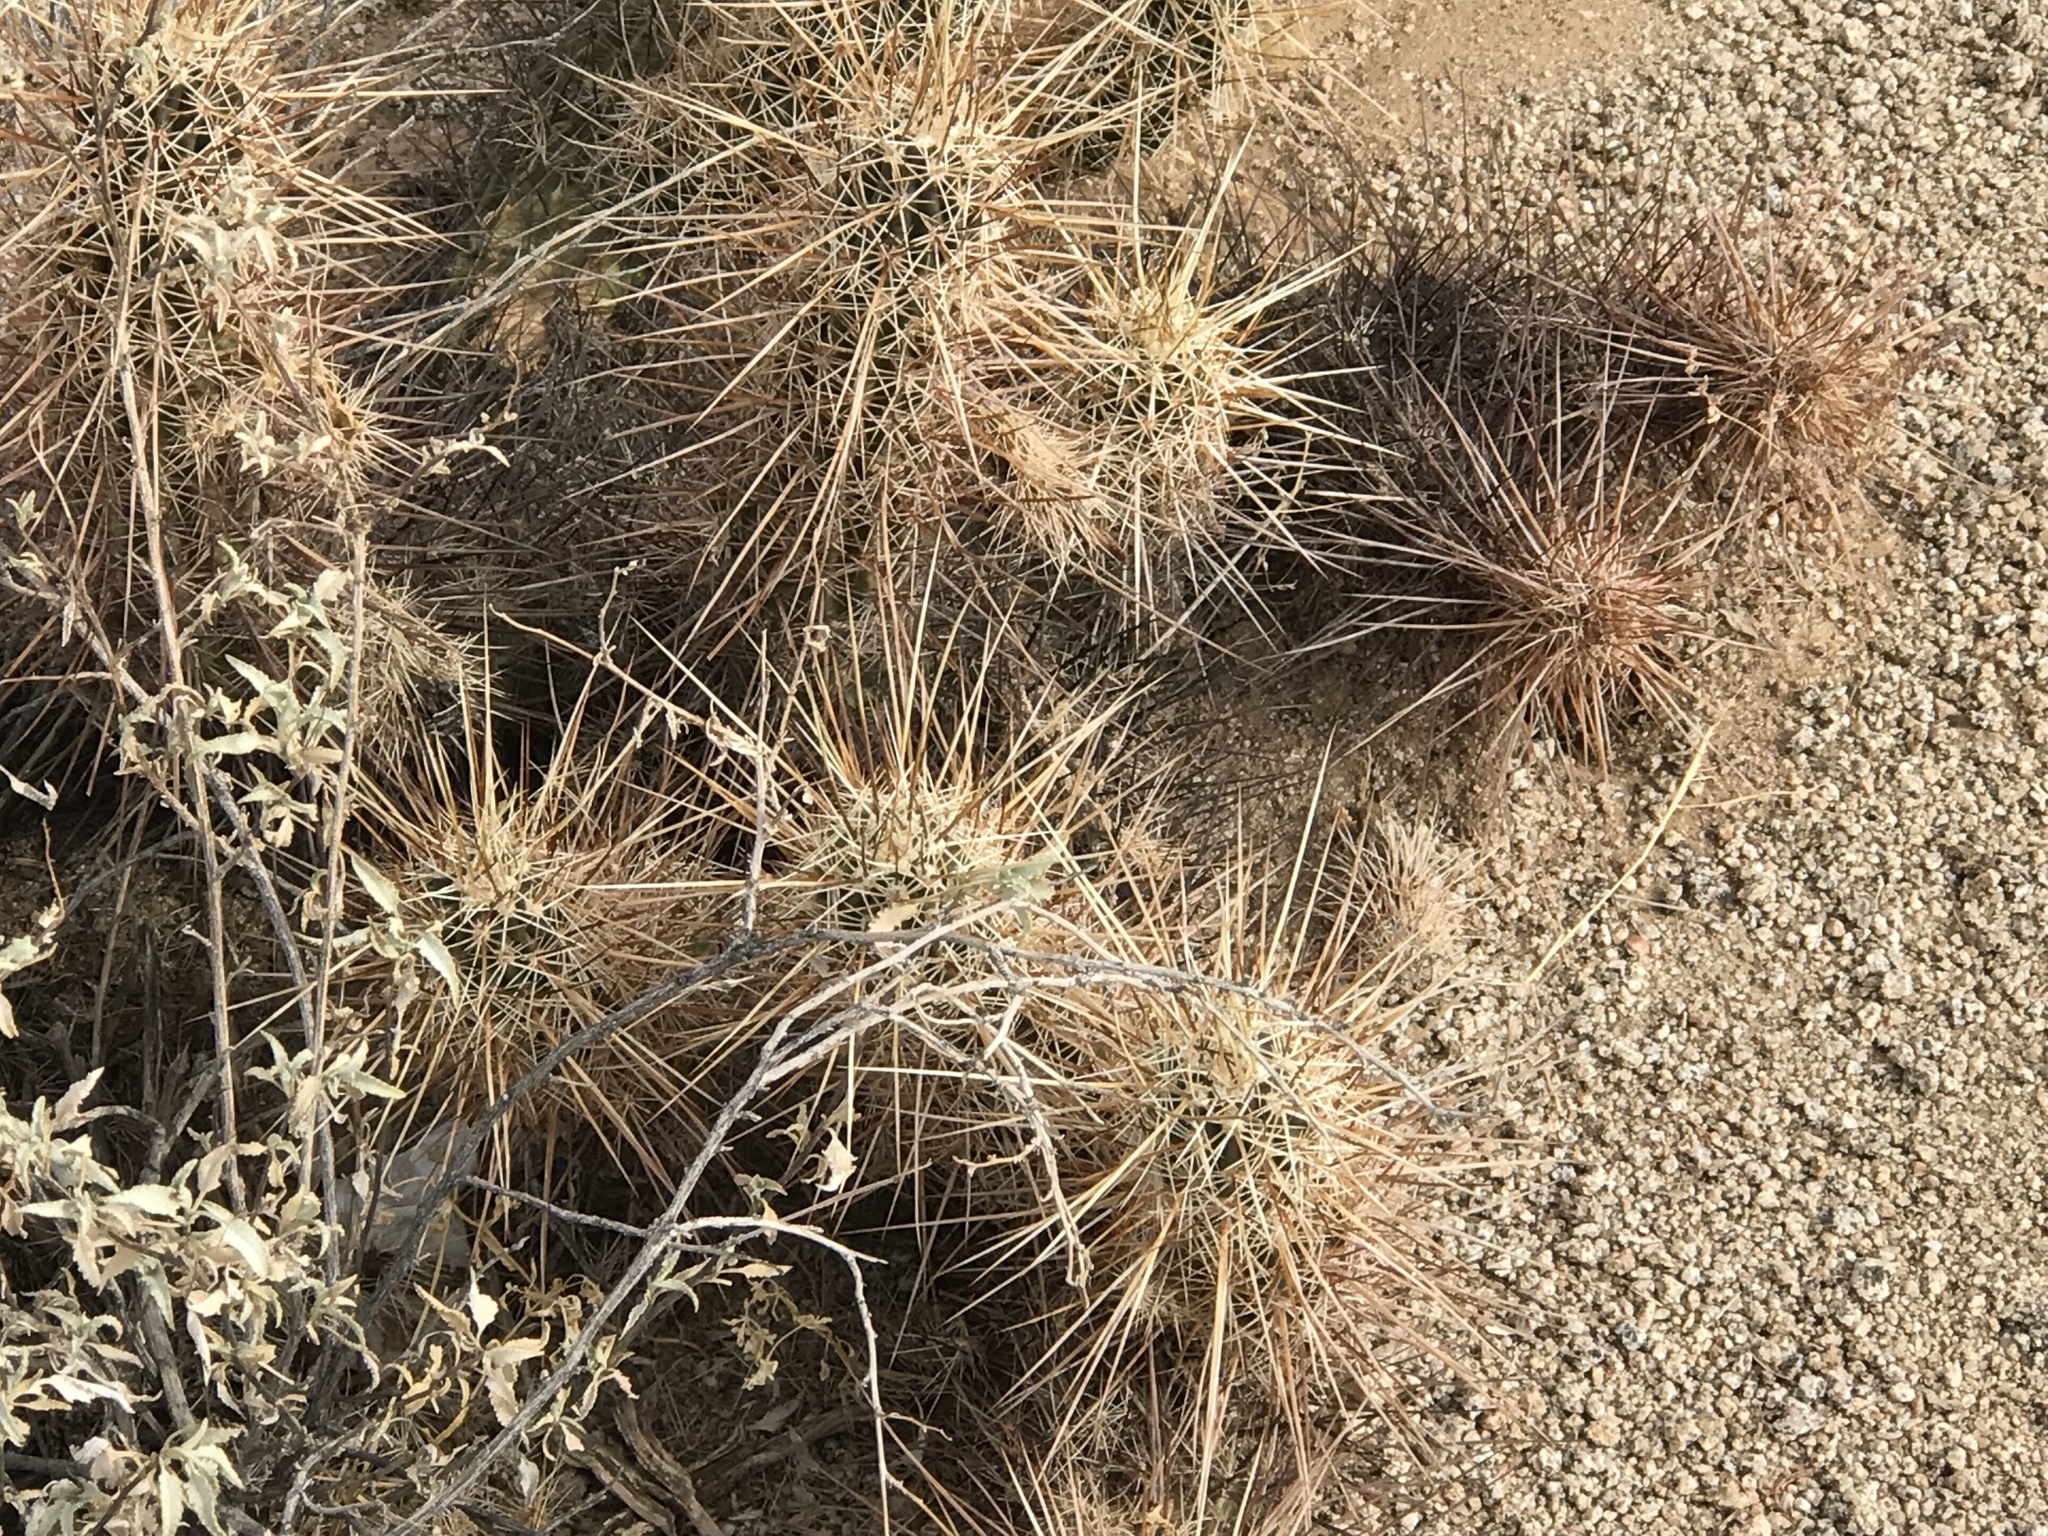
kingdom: Plantae
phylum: Tracheophyta
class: Magnoliopsida
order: Caryophyllales
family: Cactaceae
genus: Echinocereus
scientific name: Echinocereus engelmannii
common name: Engelmann's hedgehog cactus
